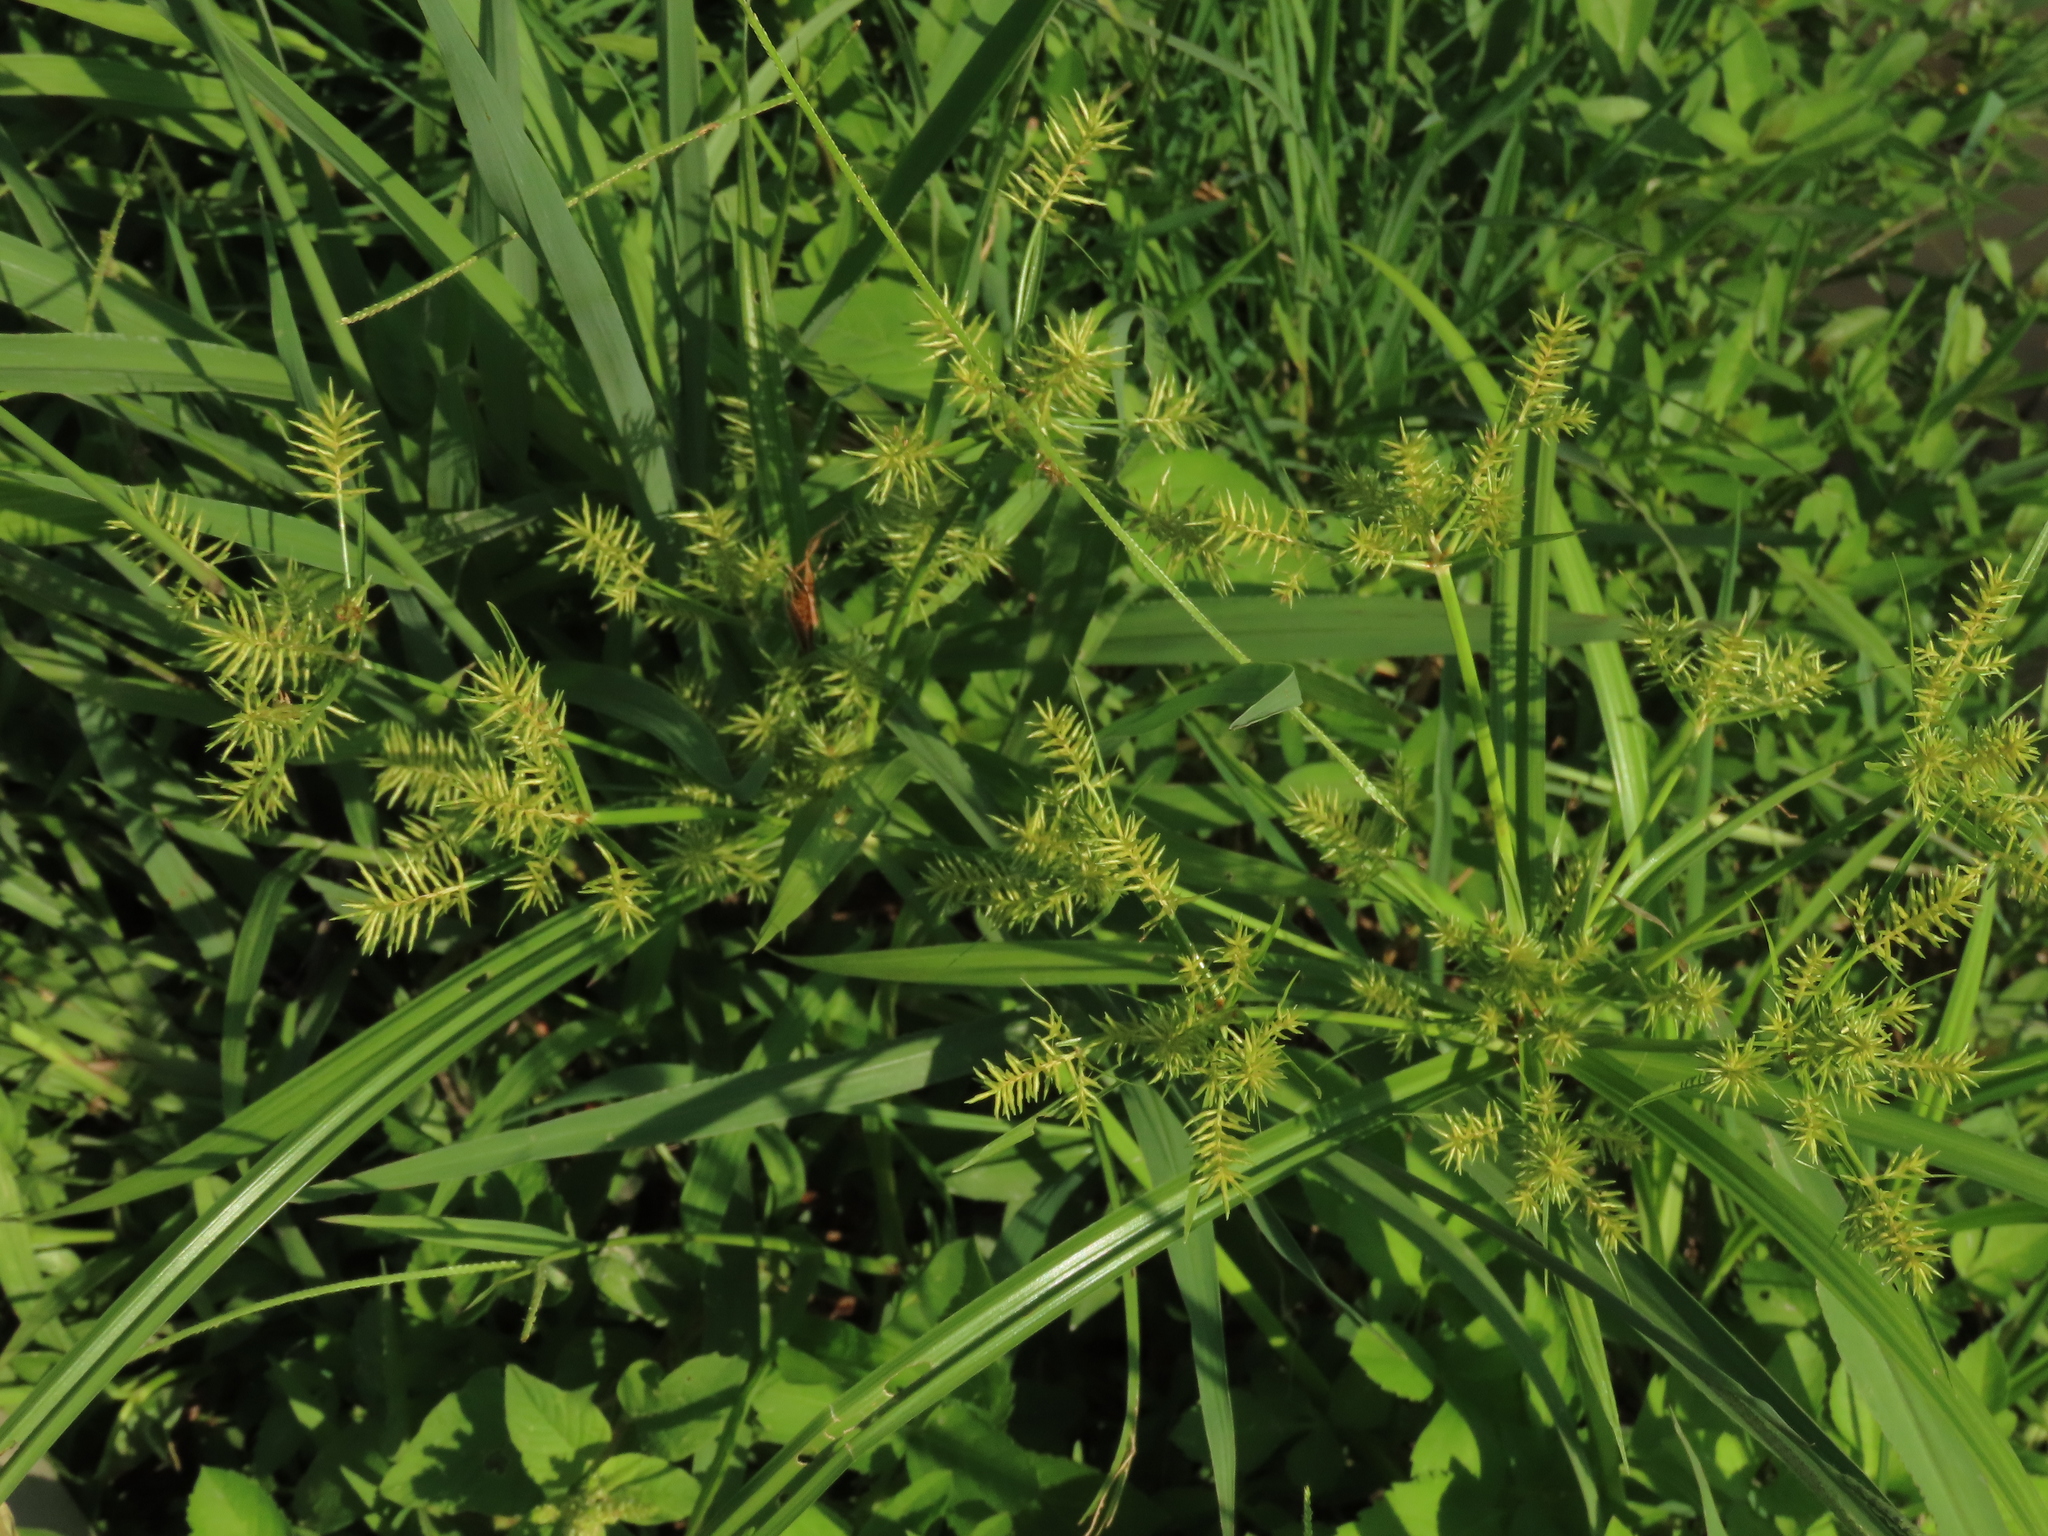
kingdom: Plantae
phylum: Tracheophyta
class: Liliopsida
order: Poales
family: Cyperaceae
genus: Cyperus
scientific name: Cyperus odoratus
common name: Fragrant flatsedge
